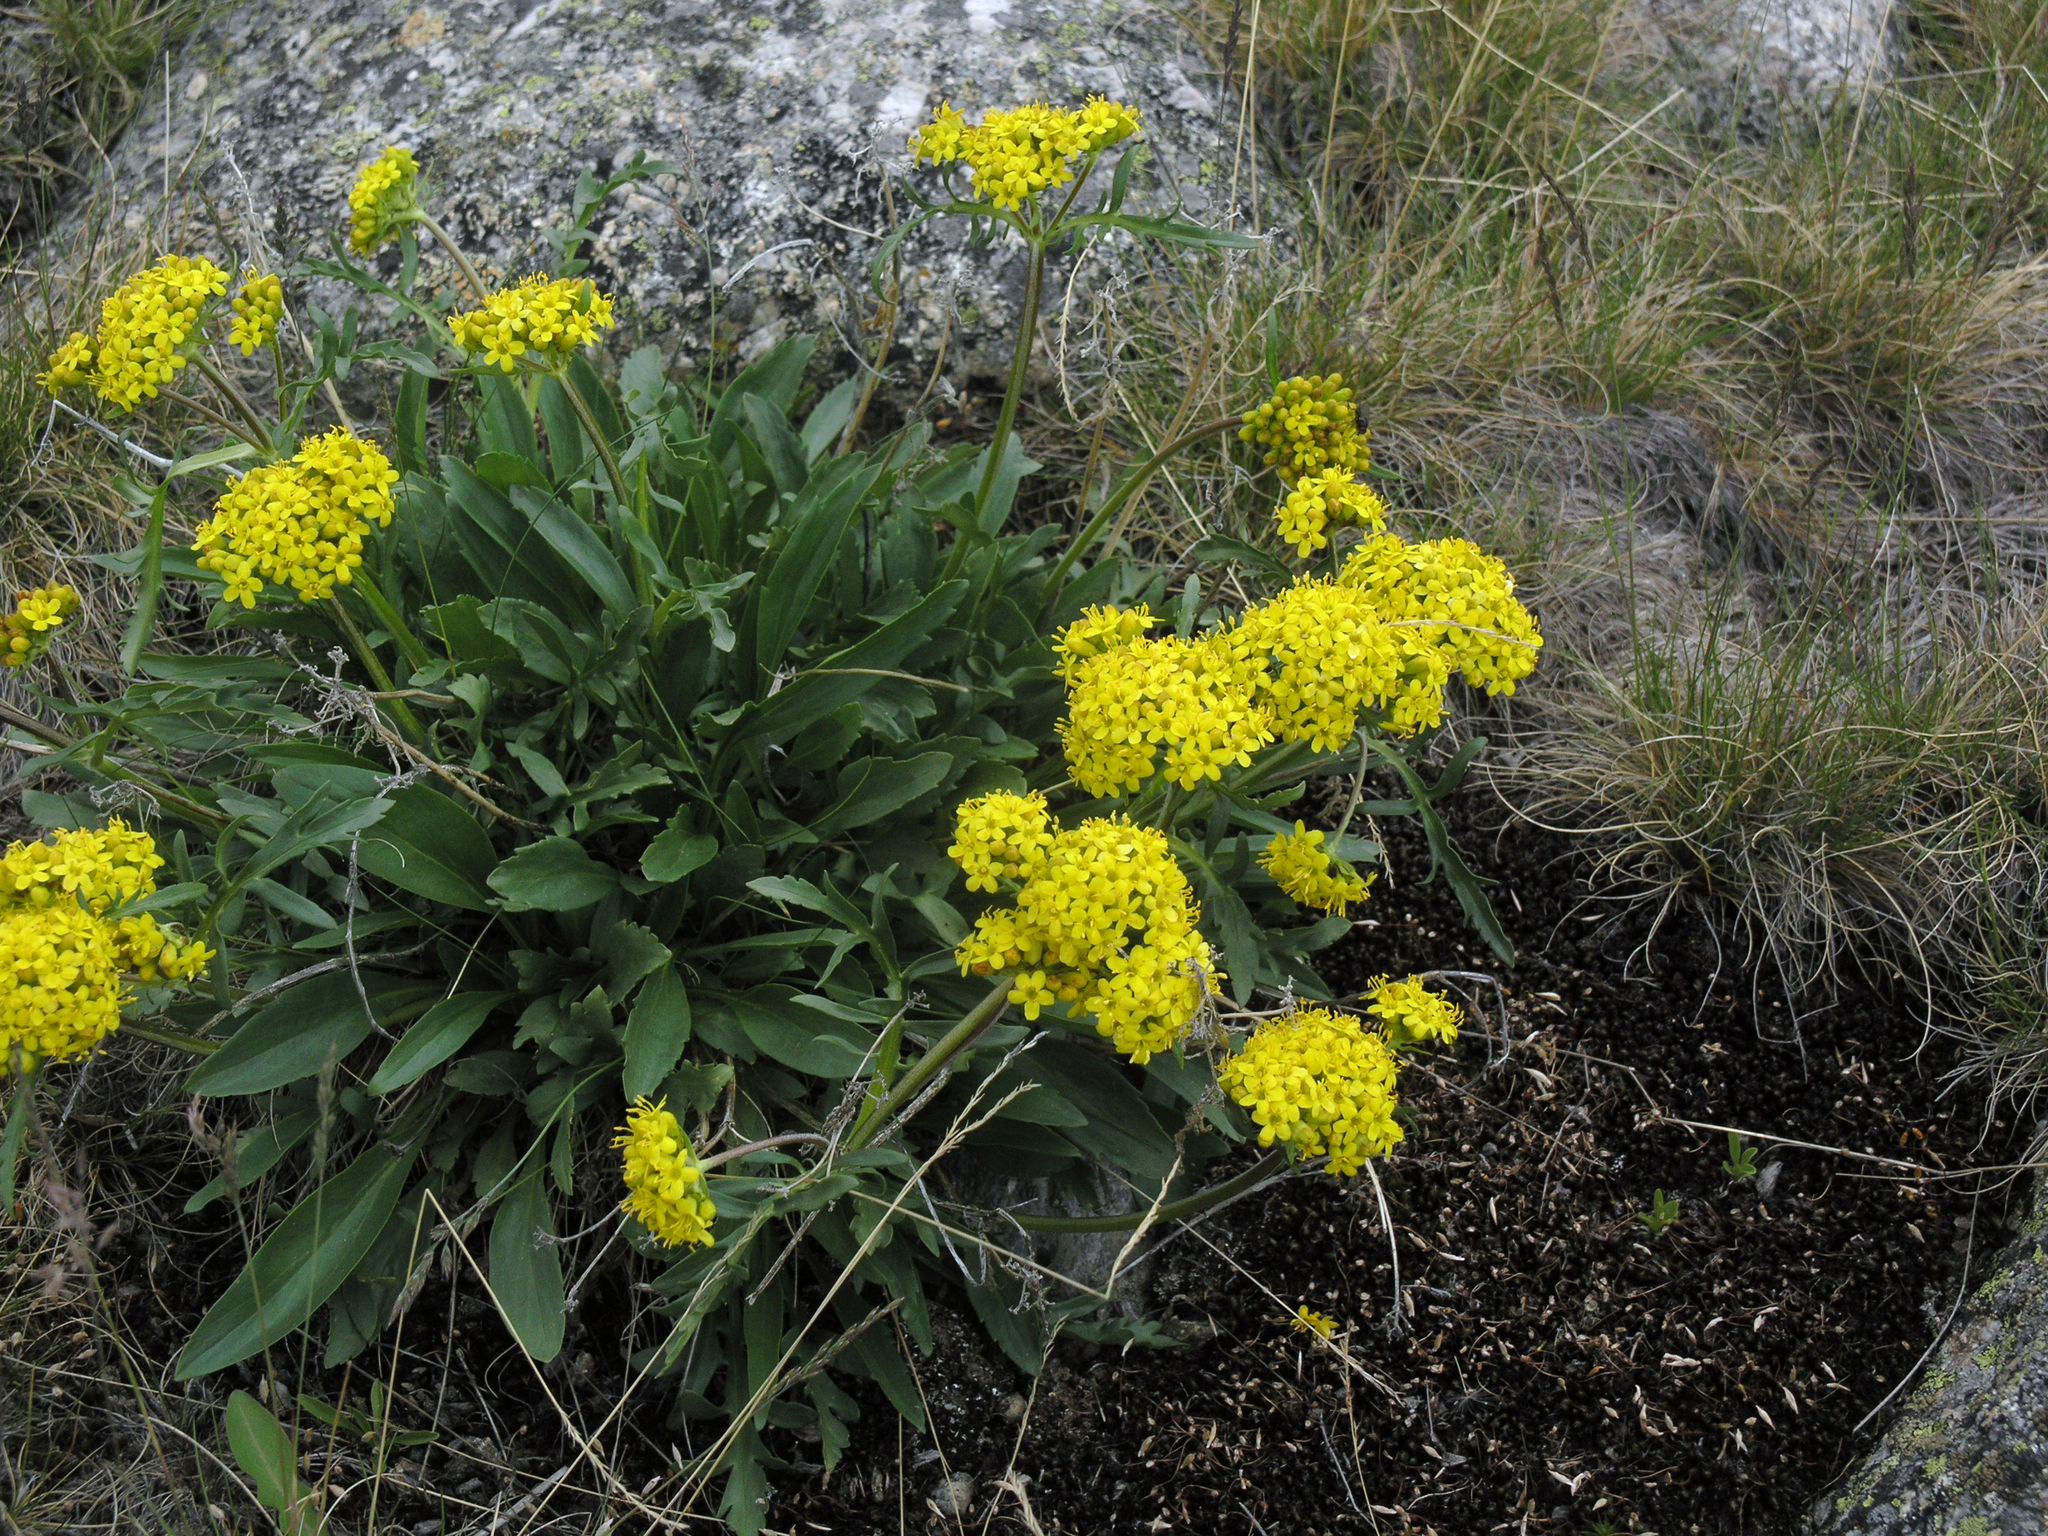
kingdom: Plantae
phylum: Tracheophyta
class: Magnoliopsida
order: Dipsacales
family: Caprifoliaceae
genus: Patrinia
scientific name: Patrinia sibirica
